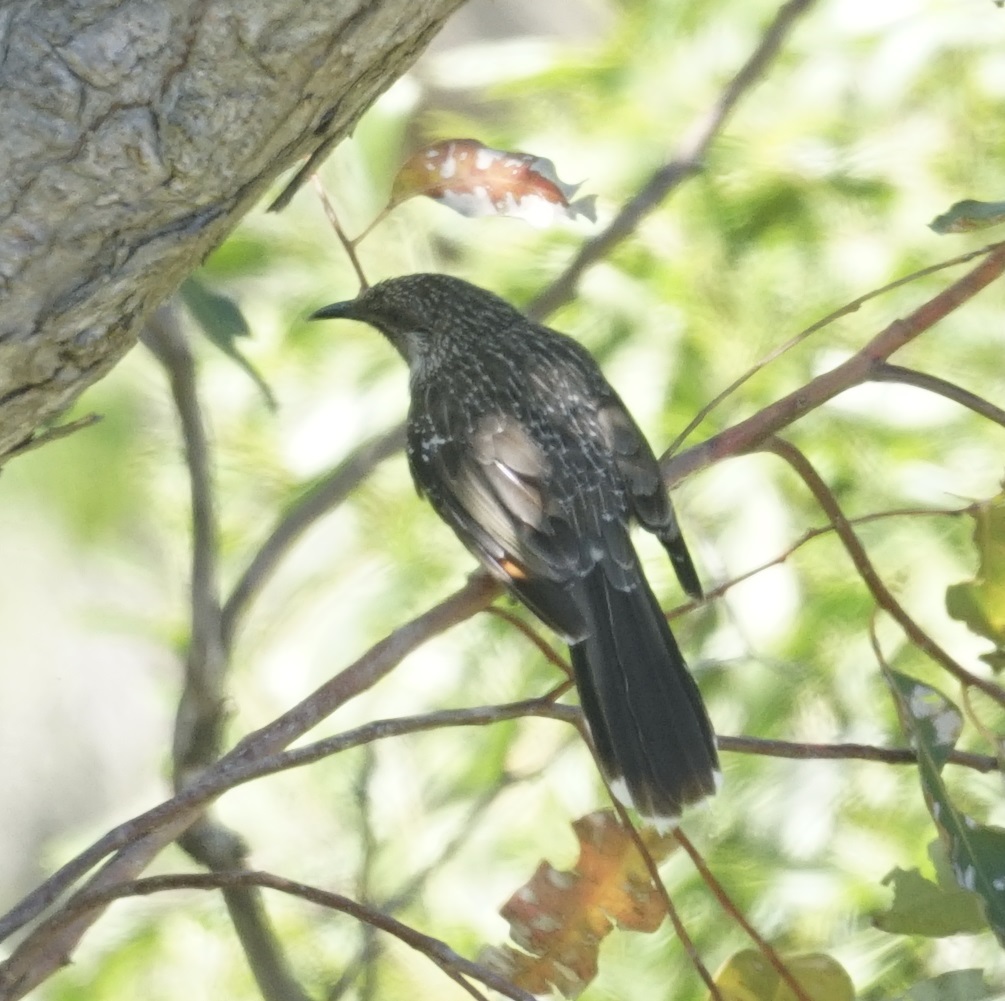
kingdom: Animalia
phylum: Chordata
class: Aves
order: Passeriformes
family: Meliphagidae
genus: Anthochaera
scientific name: Anthochaera chrysoptera
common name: Little wattlebird
